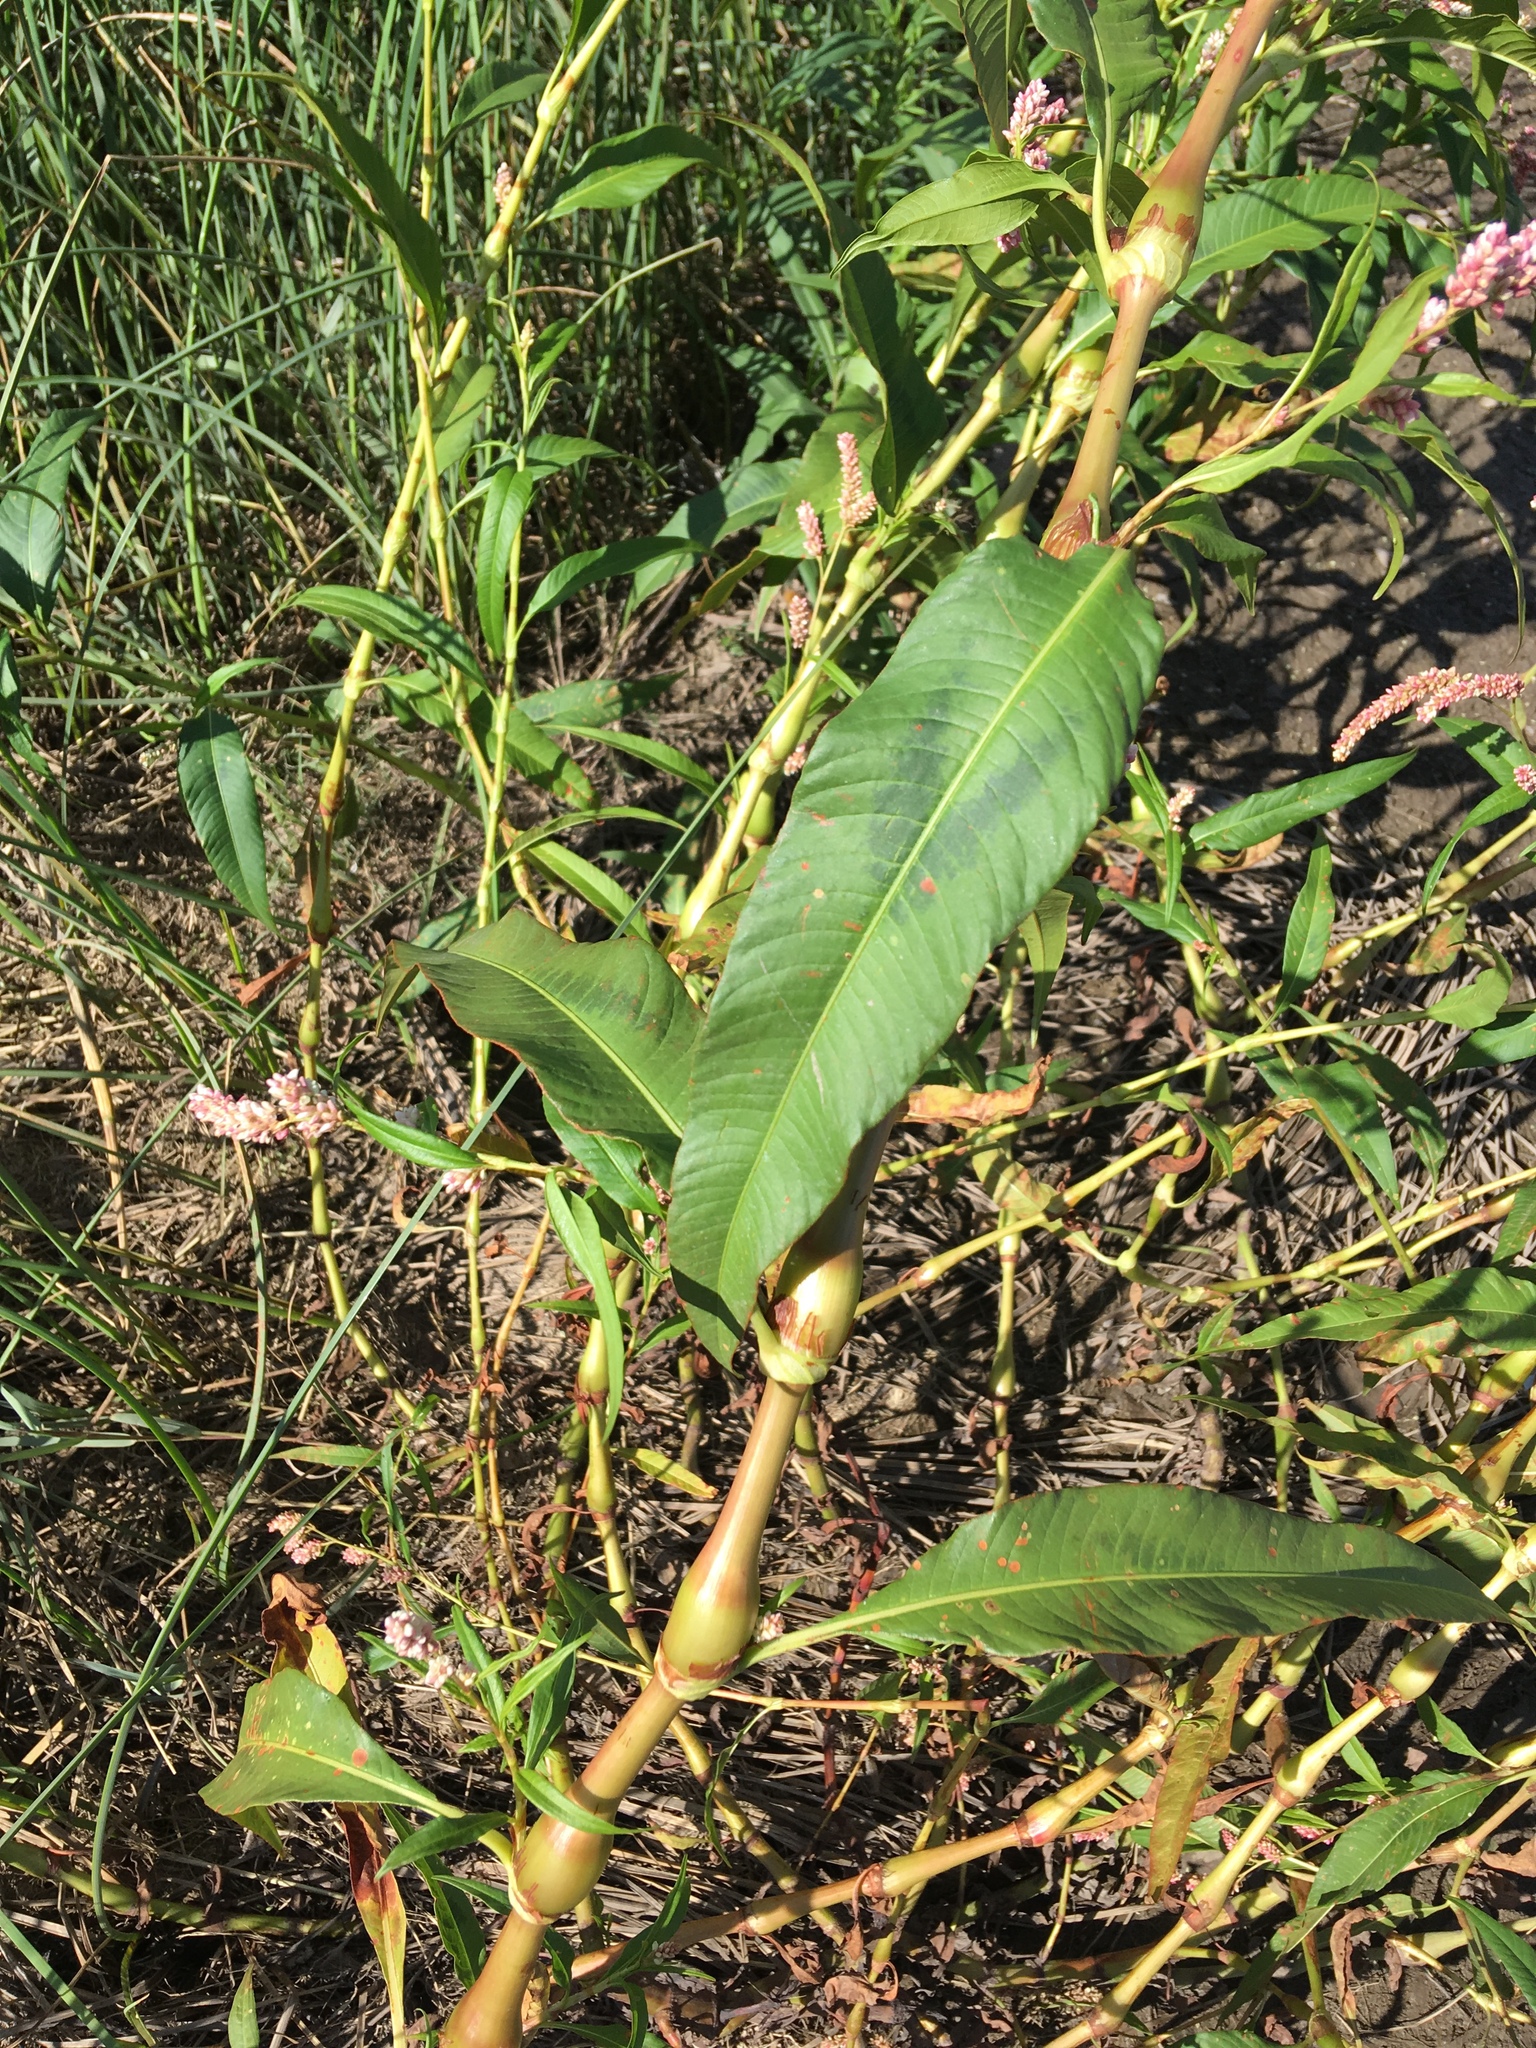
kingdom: Plantae
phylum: Tracheophyta
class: Magnoliopsida
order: Caryophyllales
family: Polygonaceae
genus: Persicaria
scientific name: Persicaria lapathifolia
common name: Curlytop knotweed
